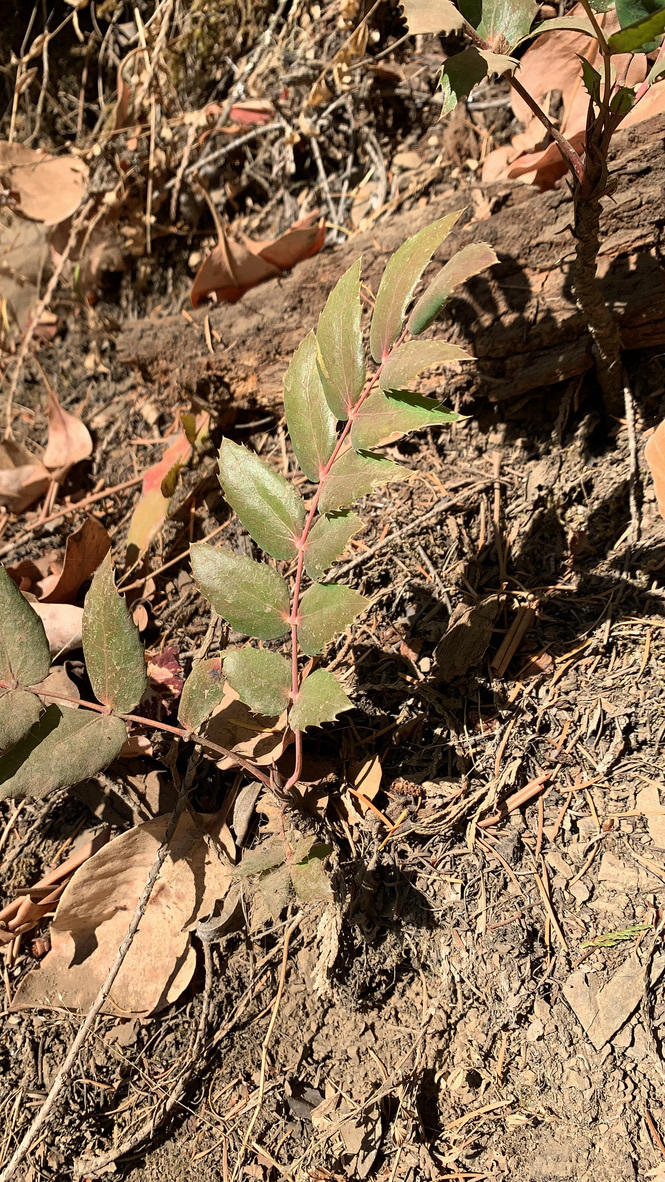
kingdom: Plantae
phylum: Tracheophyta
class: Magnoliopsida
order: Ranunculales
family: Berberidaceae
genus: Mahonia
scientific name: Mahonia nervosa
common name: Cascade oregon-grape
